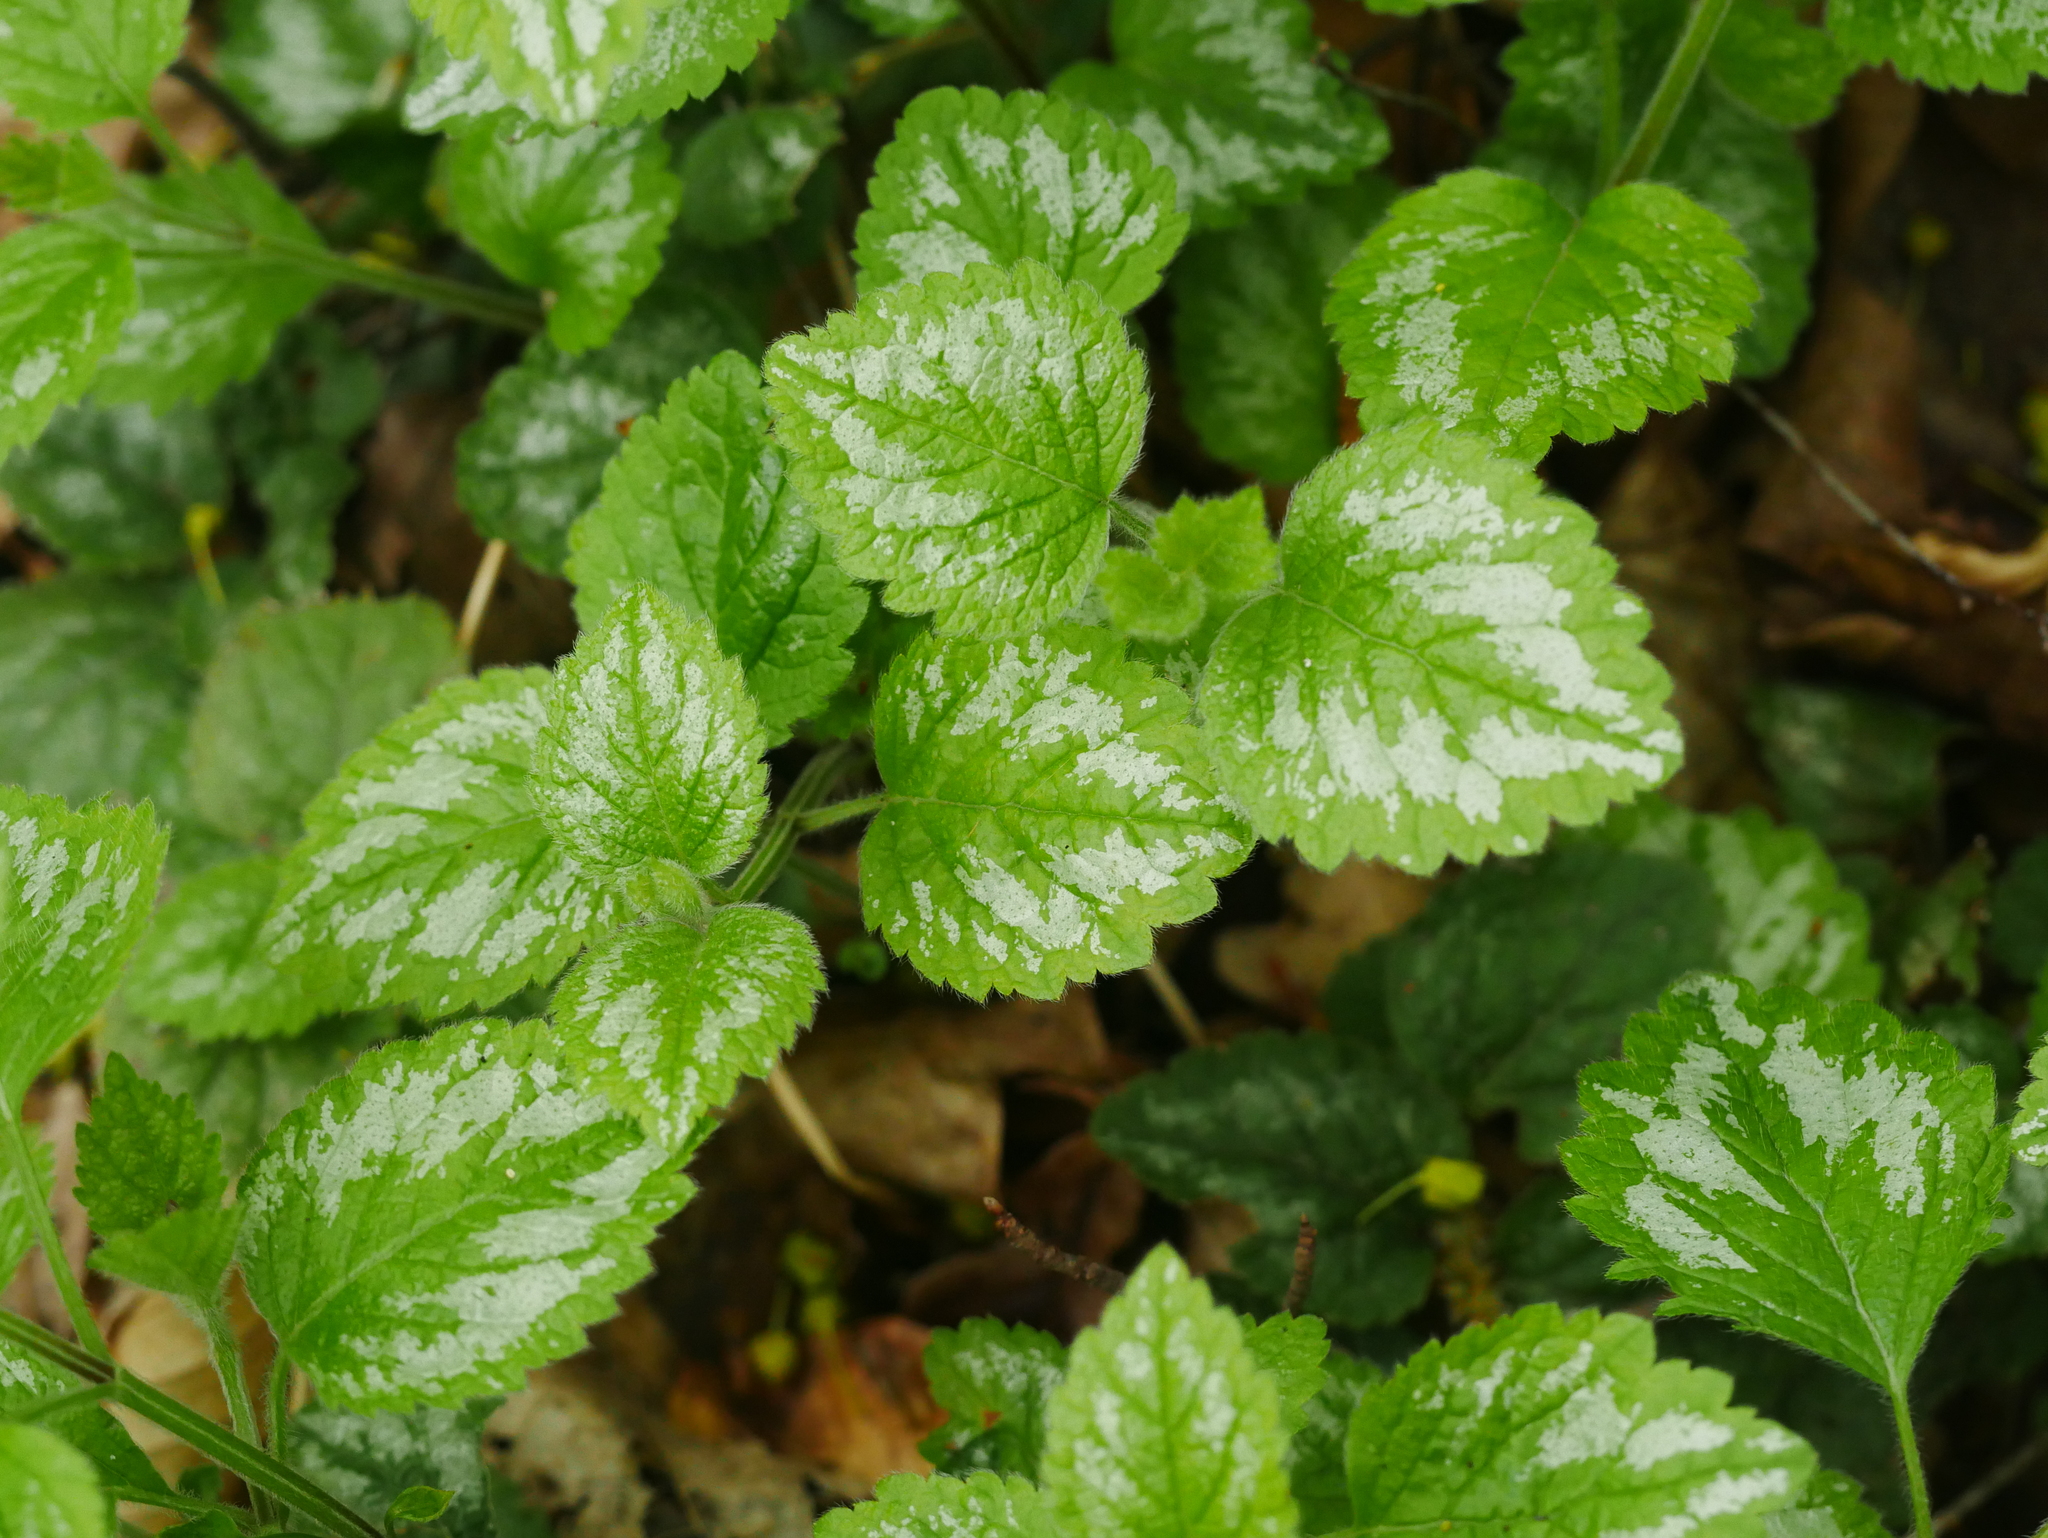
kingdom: Plantae
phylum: Tracheophyta
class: Magnoliopsida
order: Lamiales
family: Lamiaceae
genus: Lamium
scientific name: Lamium galeobdolon
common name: Yellow archangel
